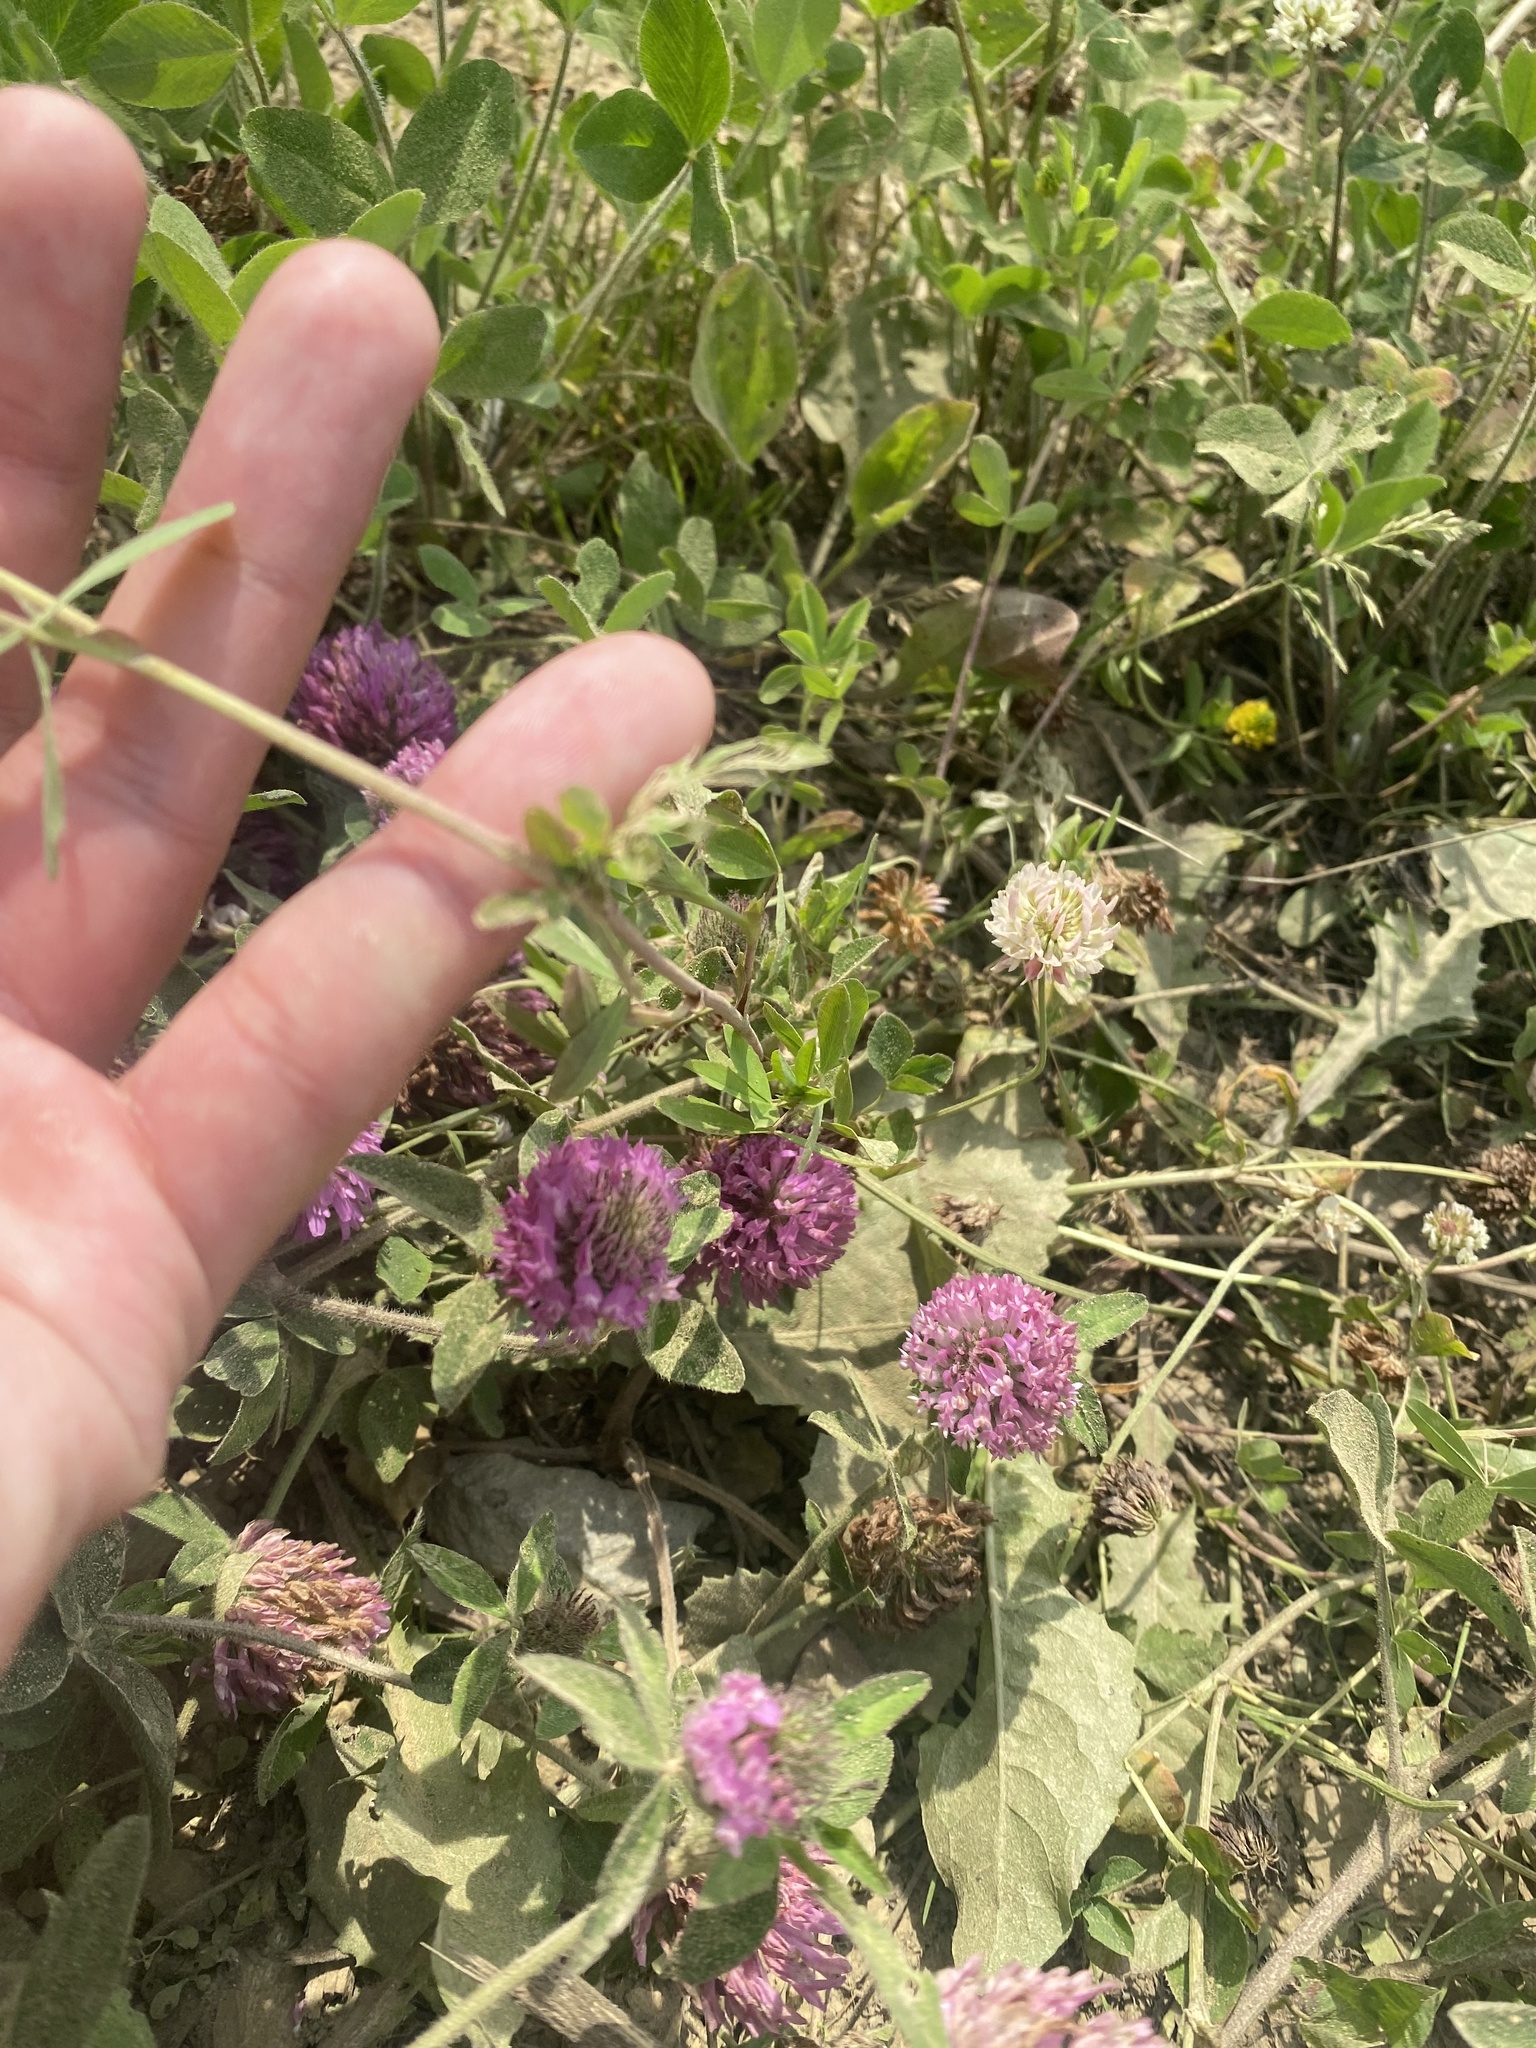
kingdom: Plantae
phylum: Tracheophyta
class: Magnoliopsida
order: Fabales
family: Fabaceae
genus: Trifolium
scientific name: Trifolium aureum
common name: Golden clover
